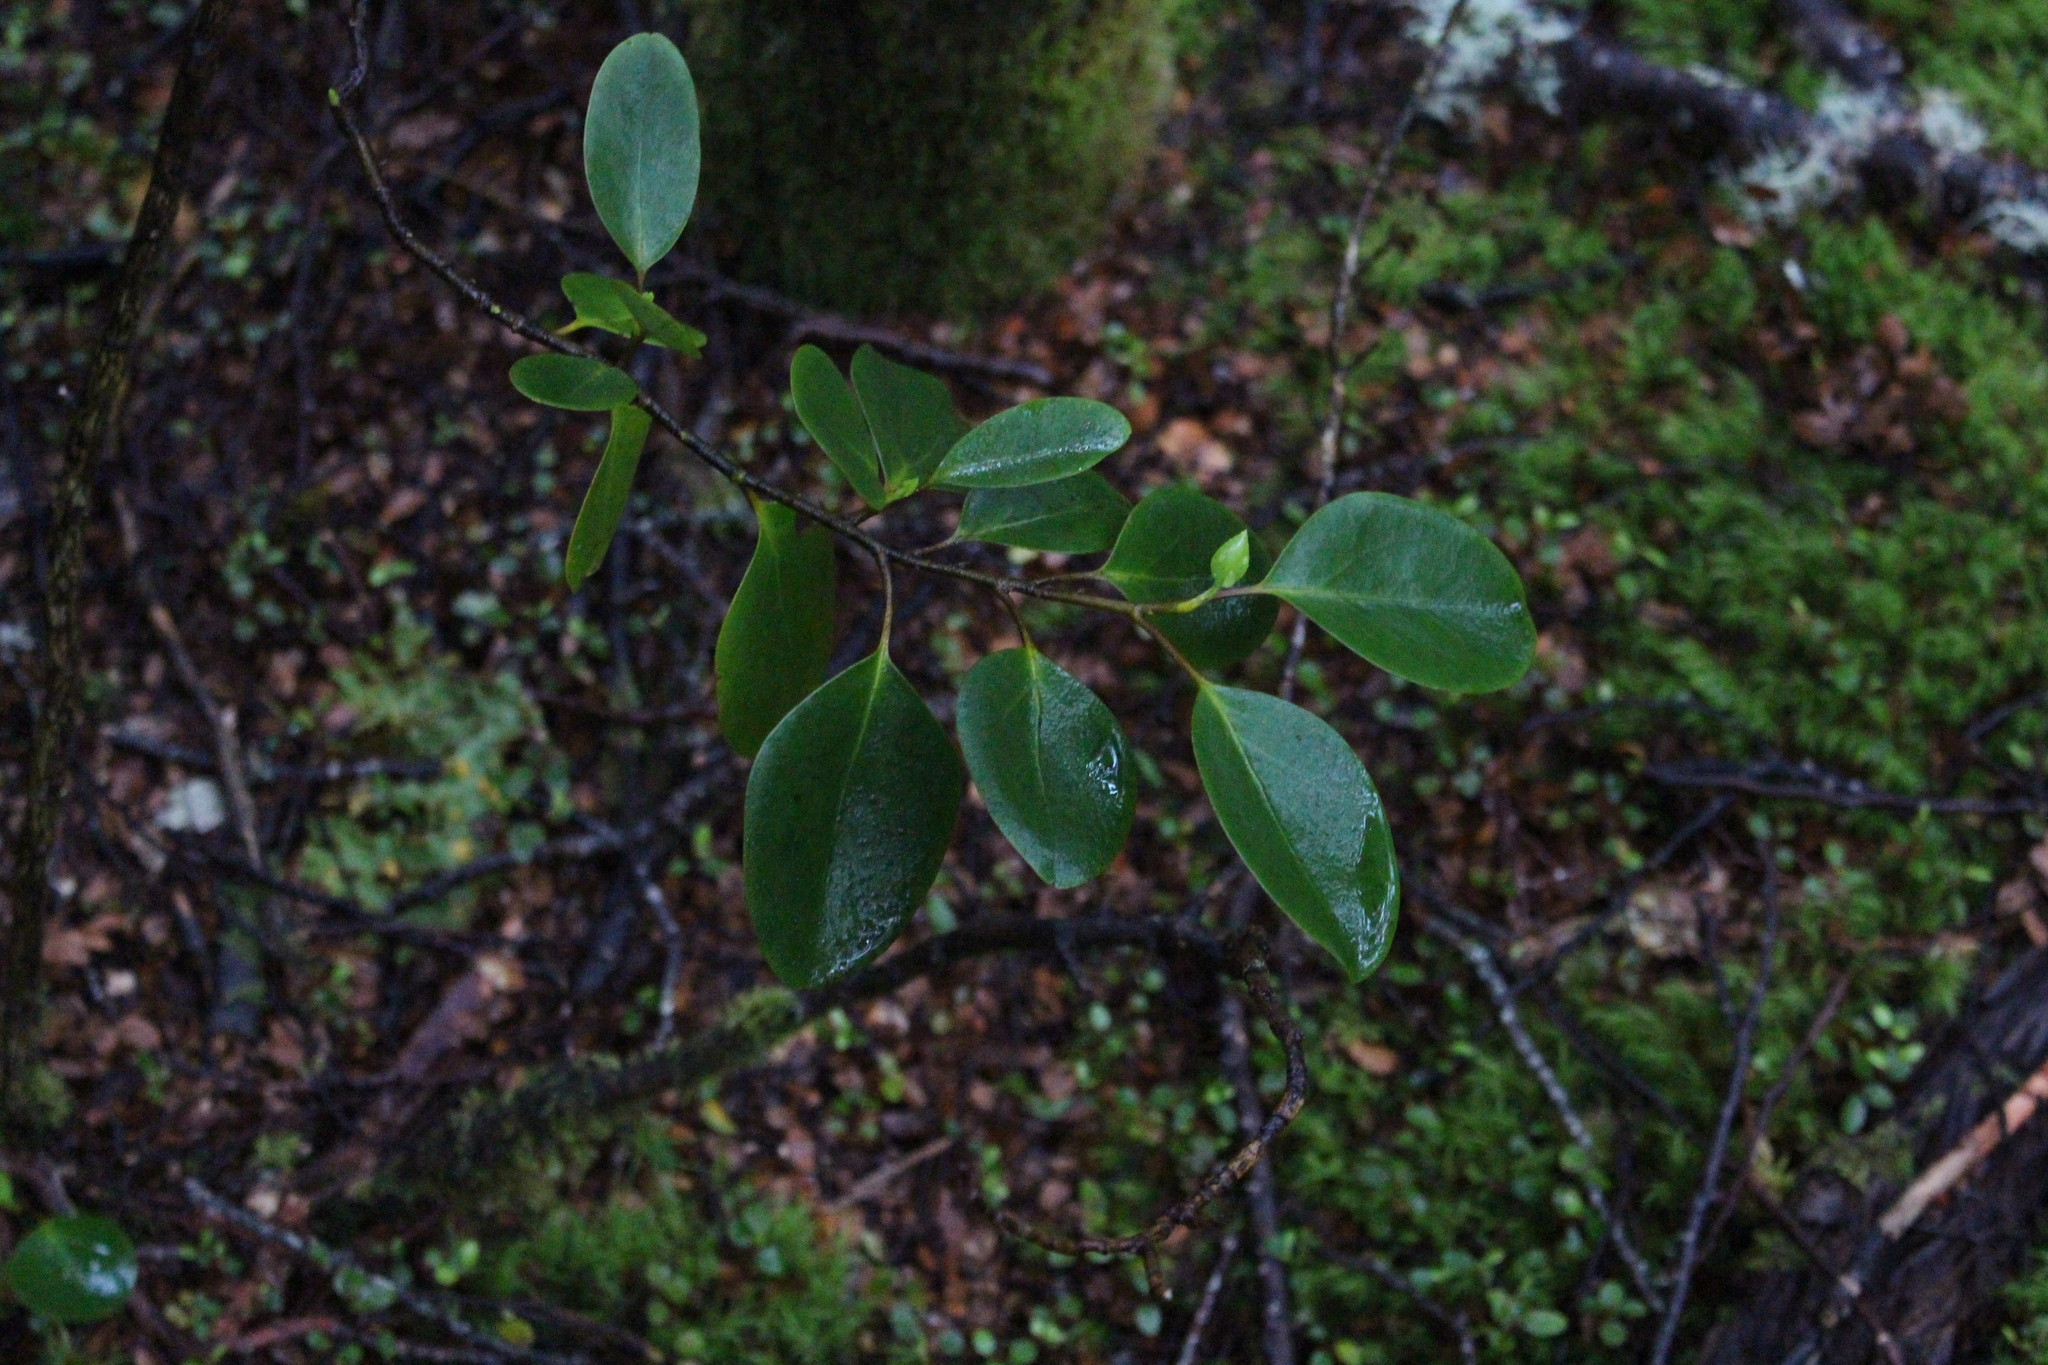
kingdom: Plantae
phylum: Tracheophyta
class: Magnoliopsida
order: Apiales
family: Griseliniaceae
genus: Griselinia
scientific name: Griselinia littoralis
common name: New zealand broadleaf
